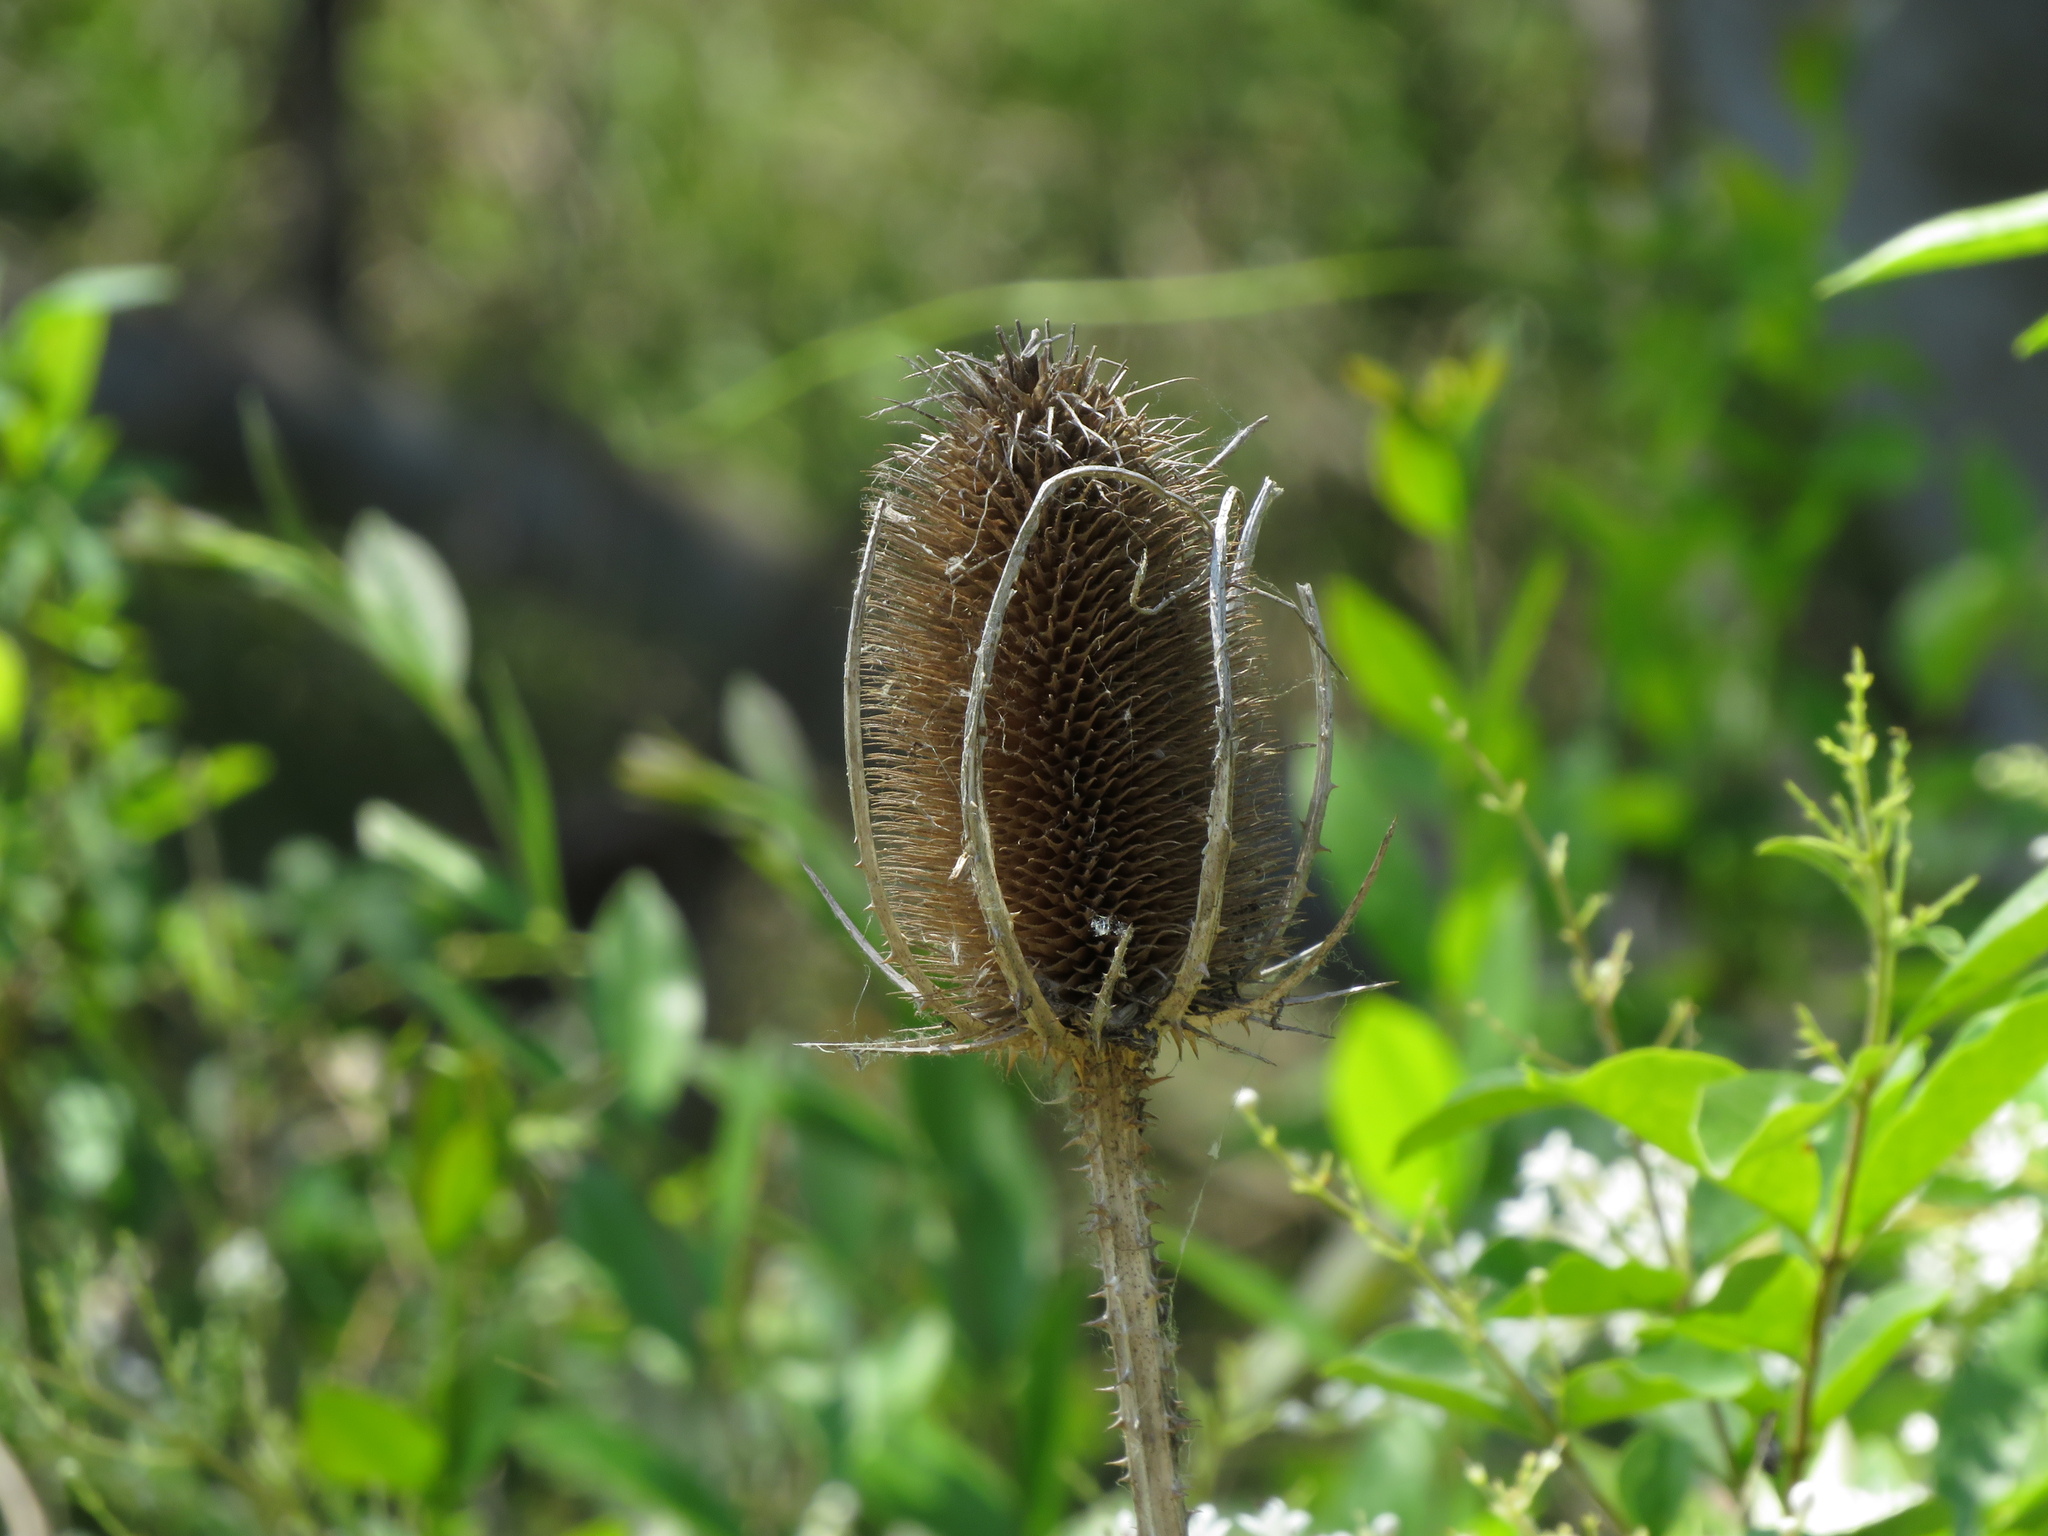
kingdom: Plantae
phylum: Tracheophyta
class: Magnoliopsida
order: Dipsacales
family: Caprifoliaceae
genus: Dipsacus
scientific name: Dipsacus fullonum
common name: Teasel
